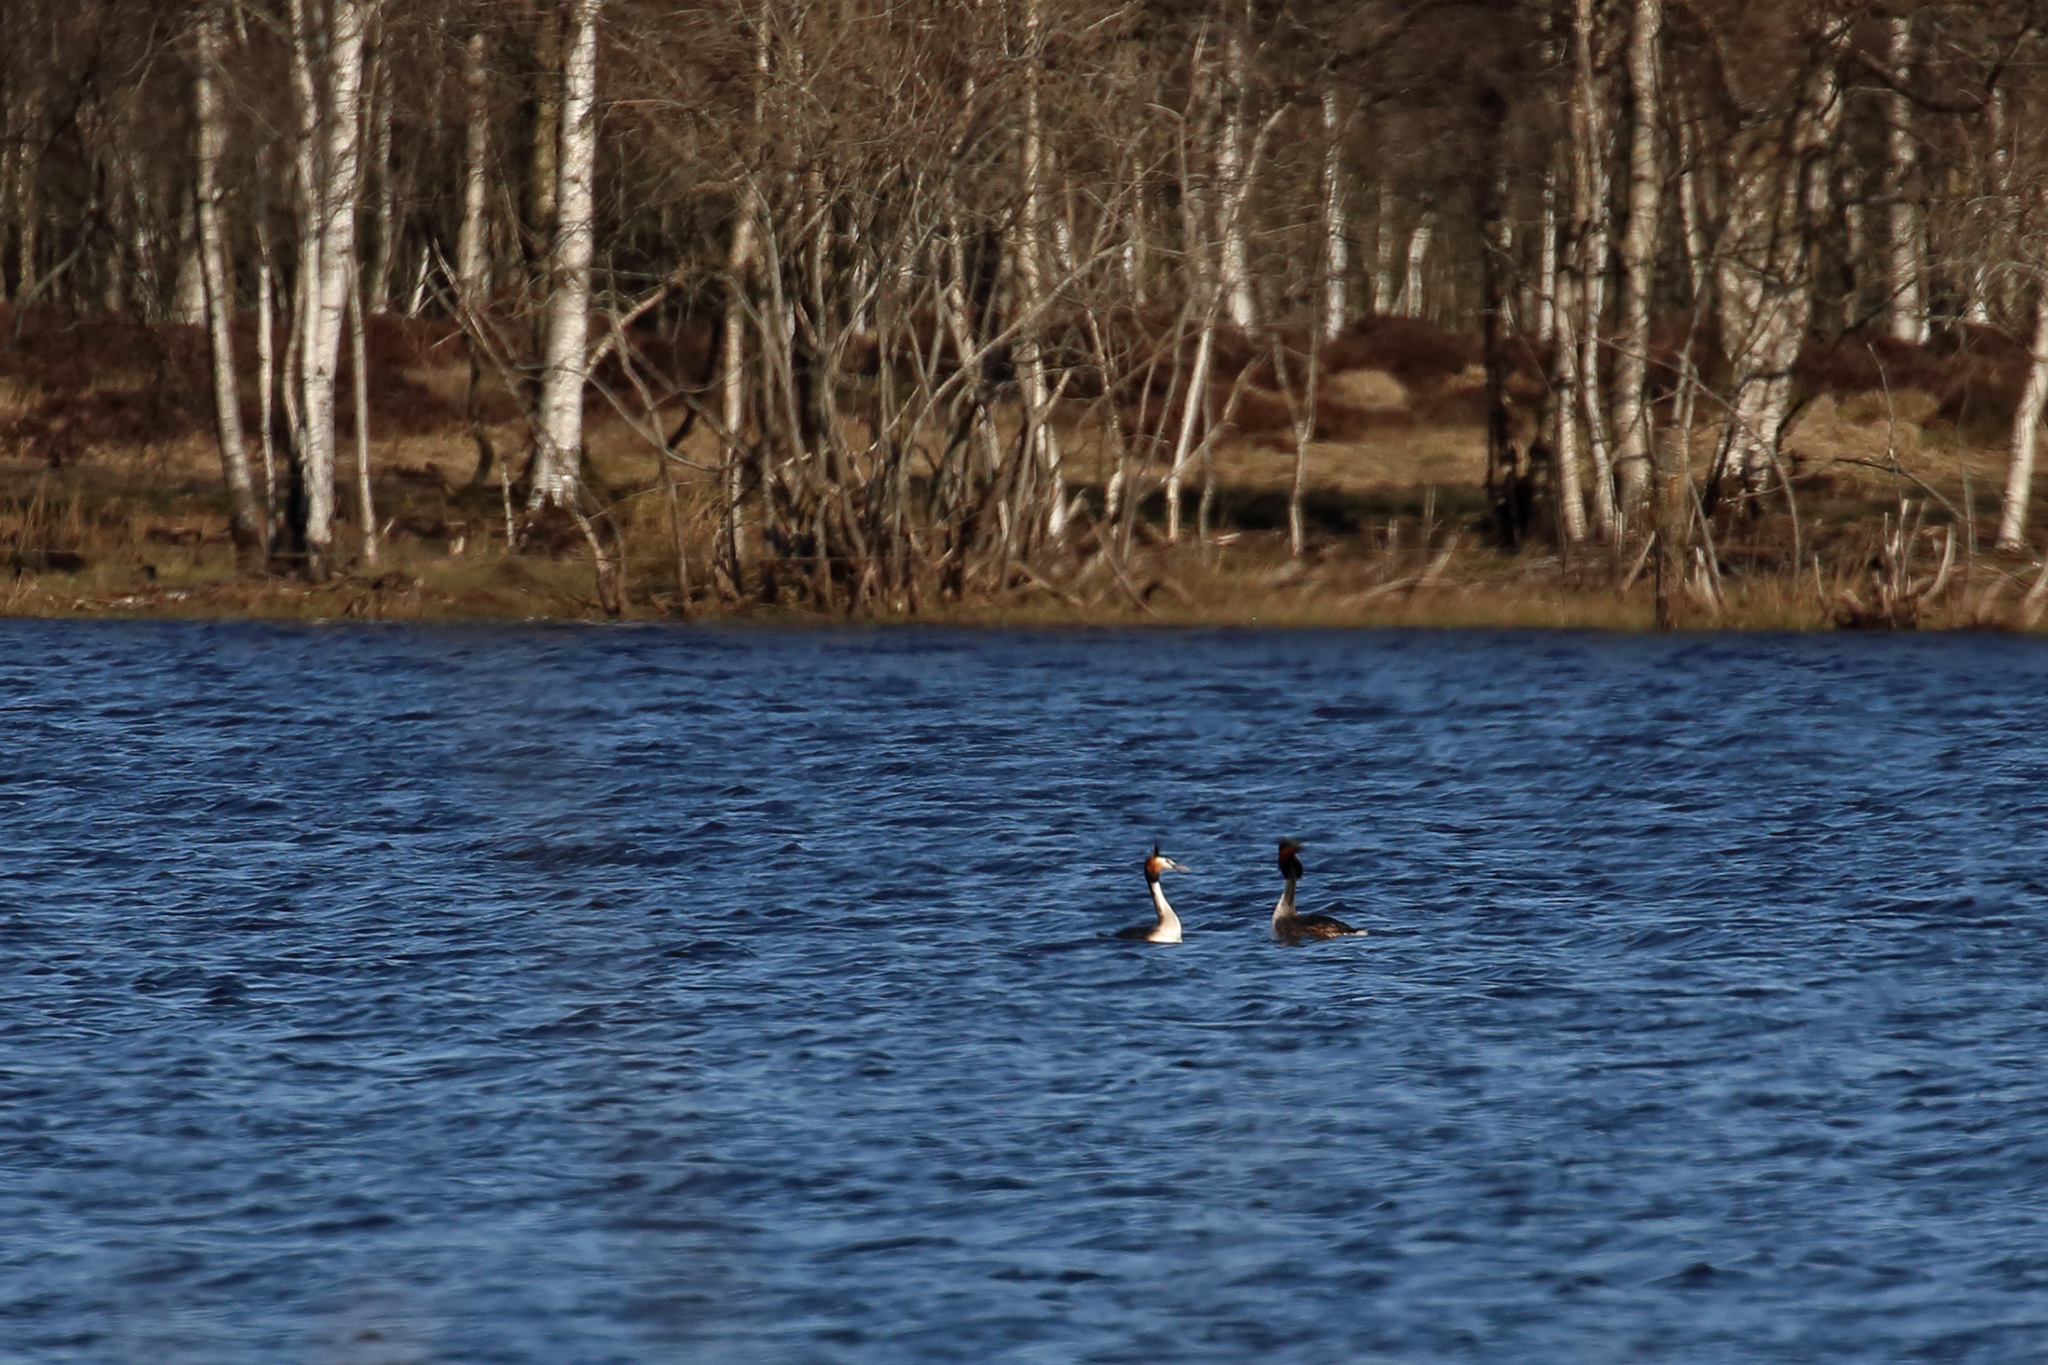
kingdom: Animalia
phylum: Chordata
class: Aves
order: Podicipediformes
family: Podicipedidae
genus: Podiceps
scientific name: Podiceps cristatus
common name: Great crested grebe
